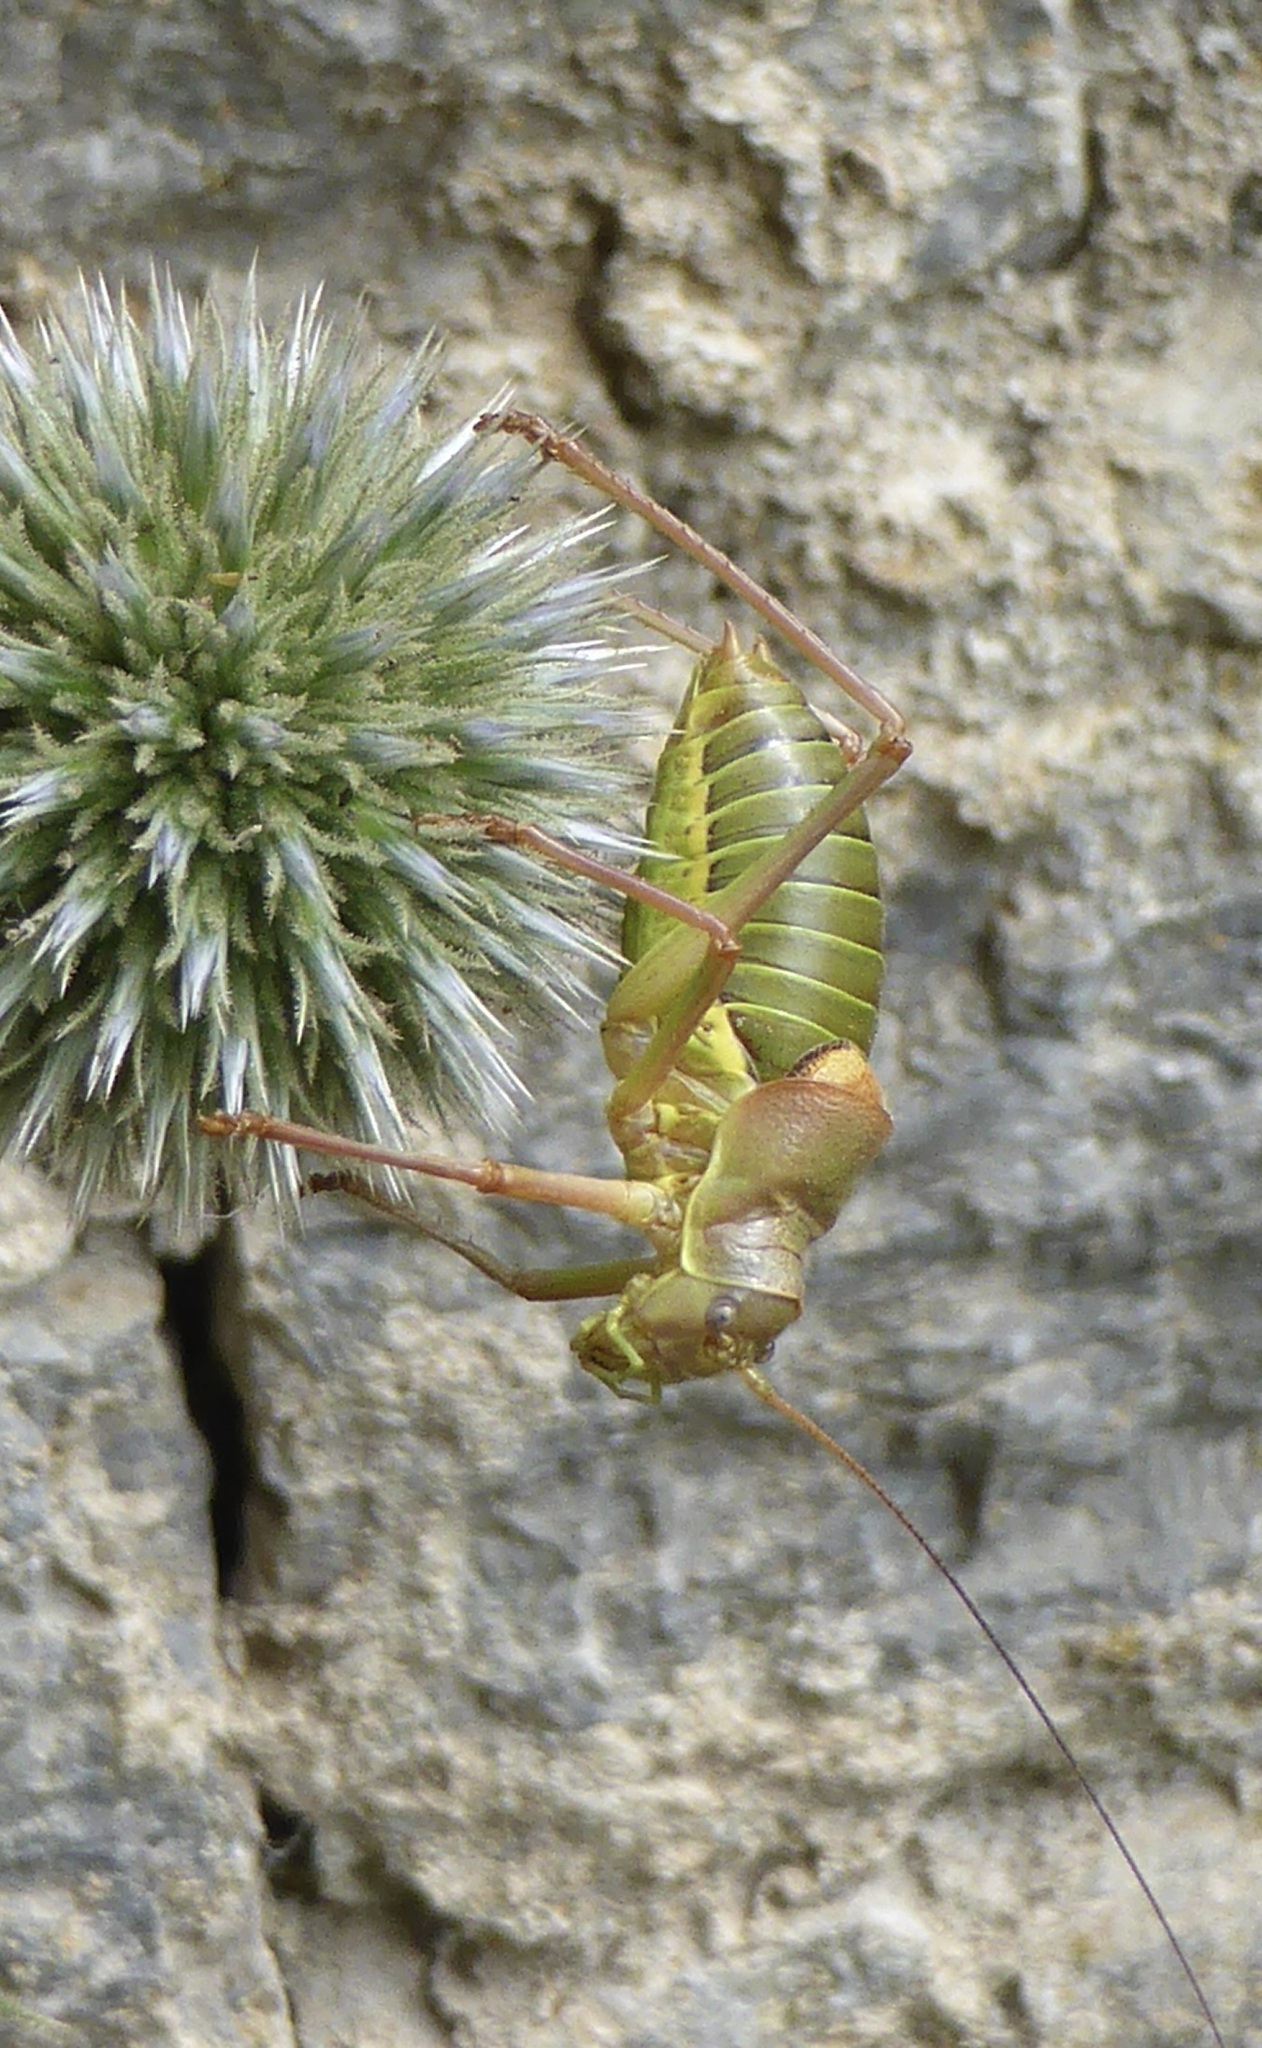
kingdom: Animalia
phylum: Arthropoda
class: Insecta
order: Orthoptera
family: Tettigoniidae
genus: Ephippiger
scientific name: Ephippiger diurnus
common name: Western saddle bush-cricket
